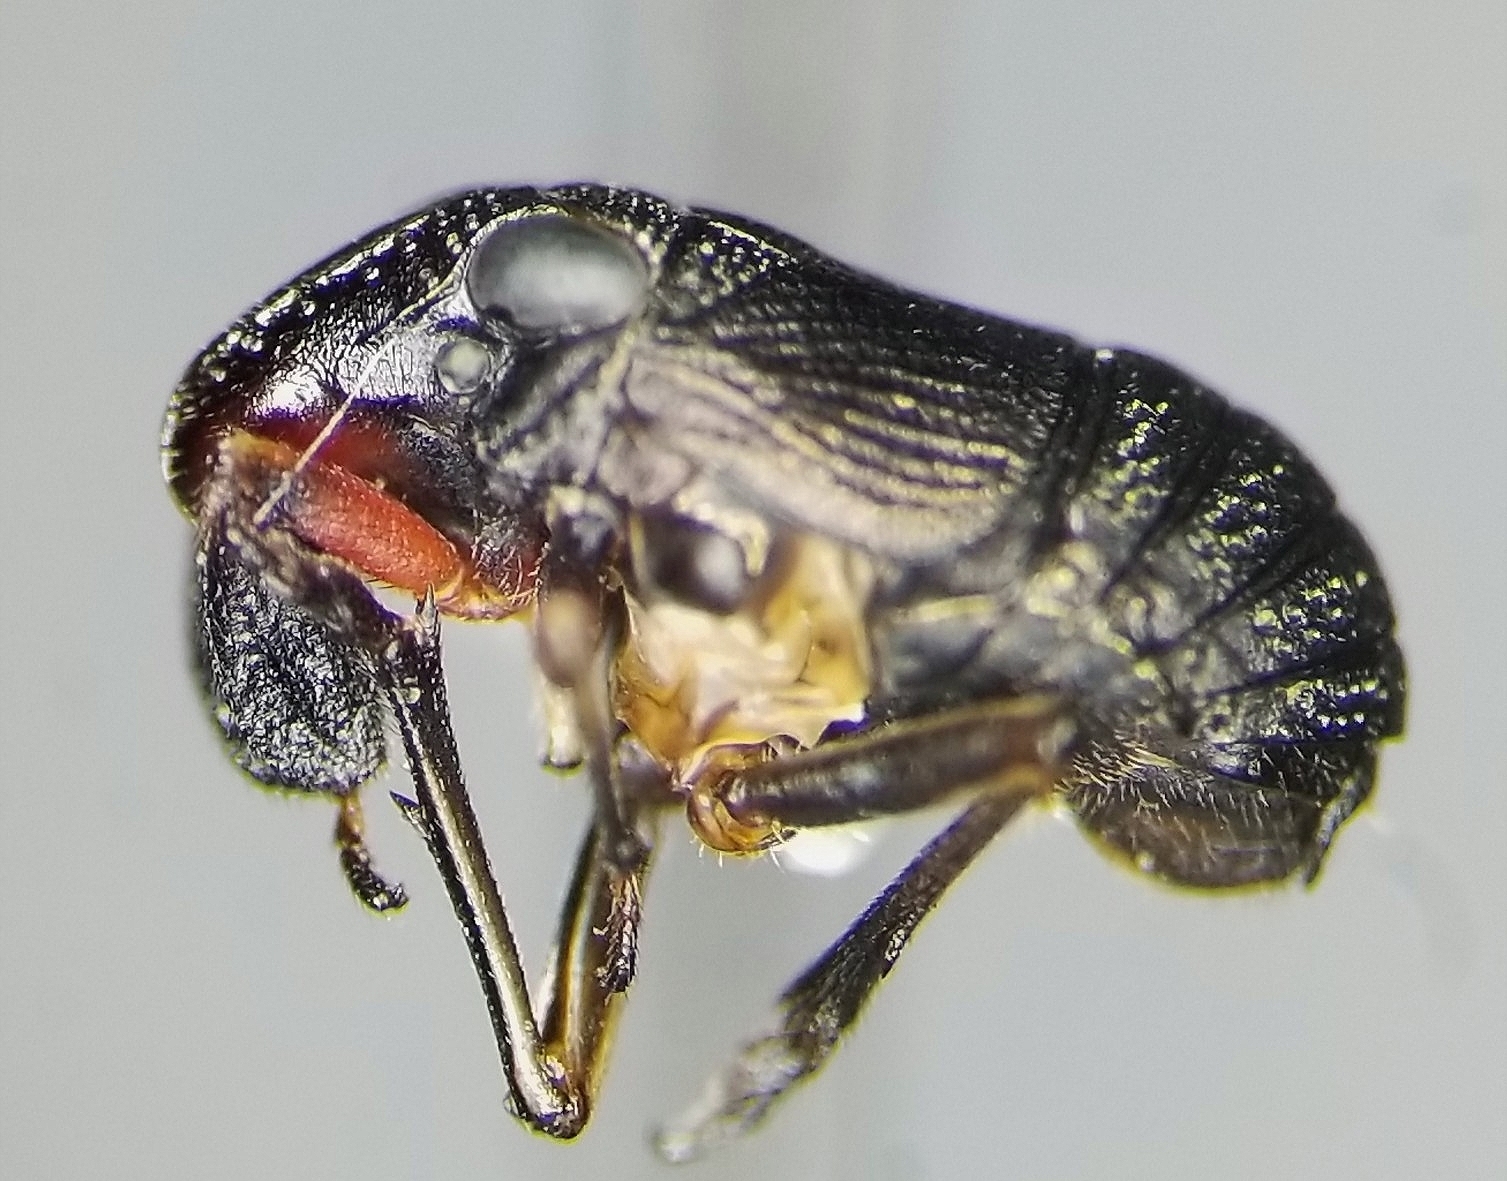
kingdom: Animalia
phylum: Arthropoda
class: Insecta
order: Hemiptera
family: Caliscelidae
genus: Fitchiella
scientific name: Fitchiella rufipes
